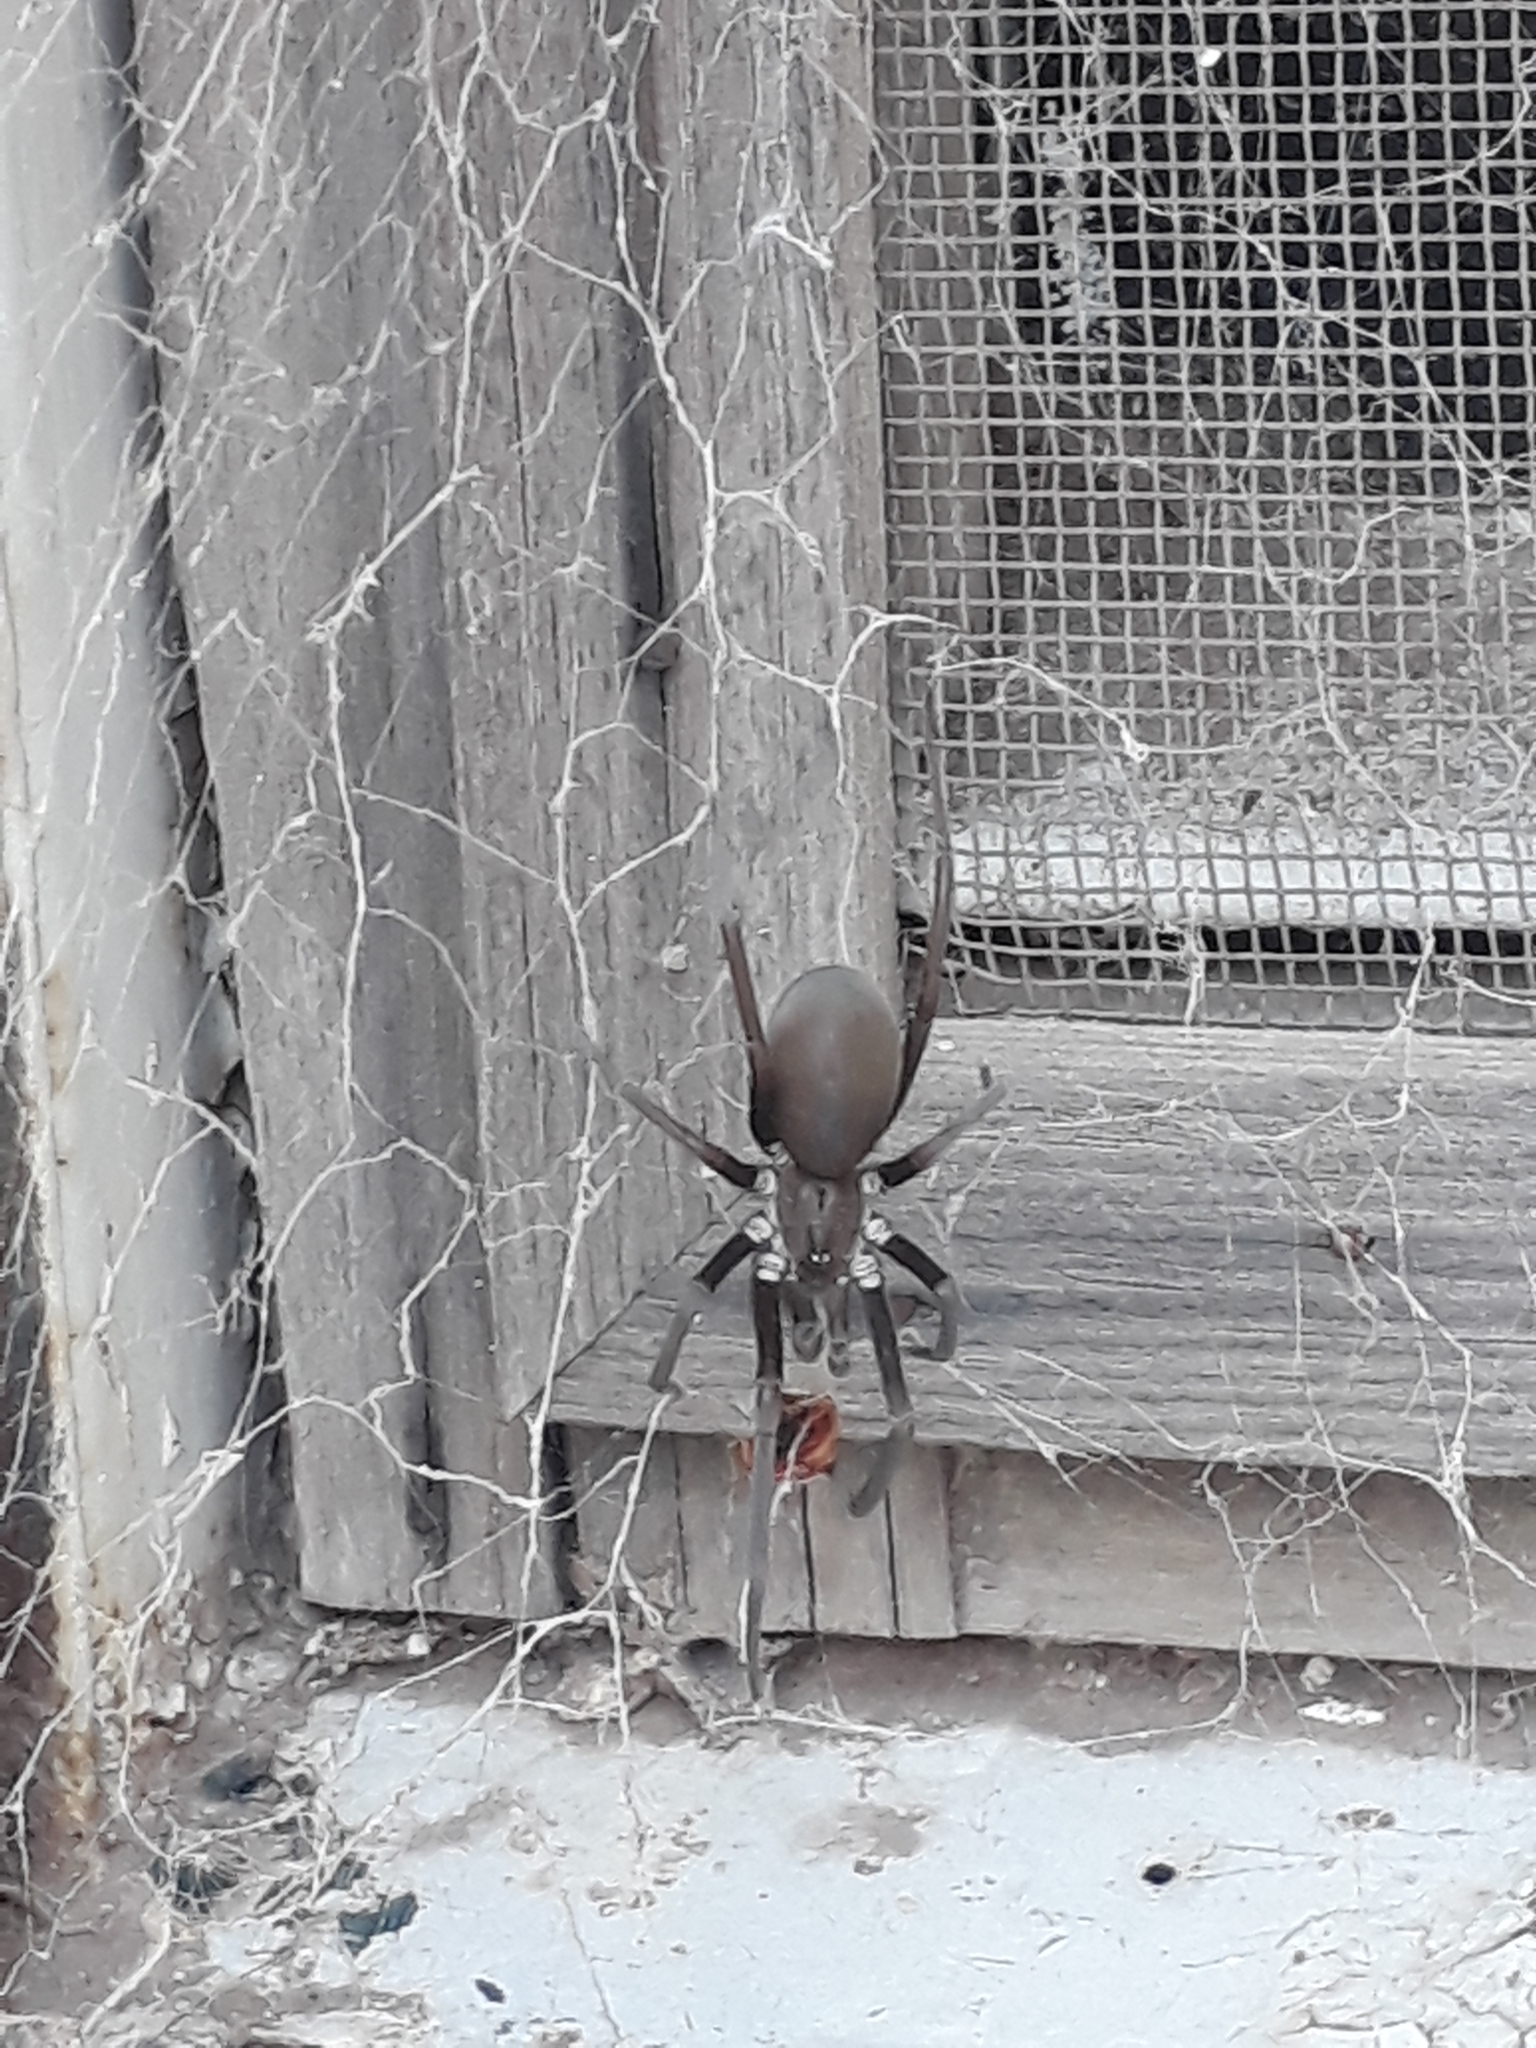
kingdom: Animalia
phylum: Arthropoda
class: Arachnida
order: Araneae
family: Filistatidae
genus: Kukulcania
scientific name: Kukulcania hibernalis
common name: Crevice weaver
